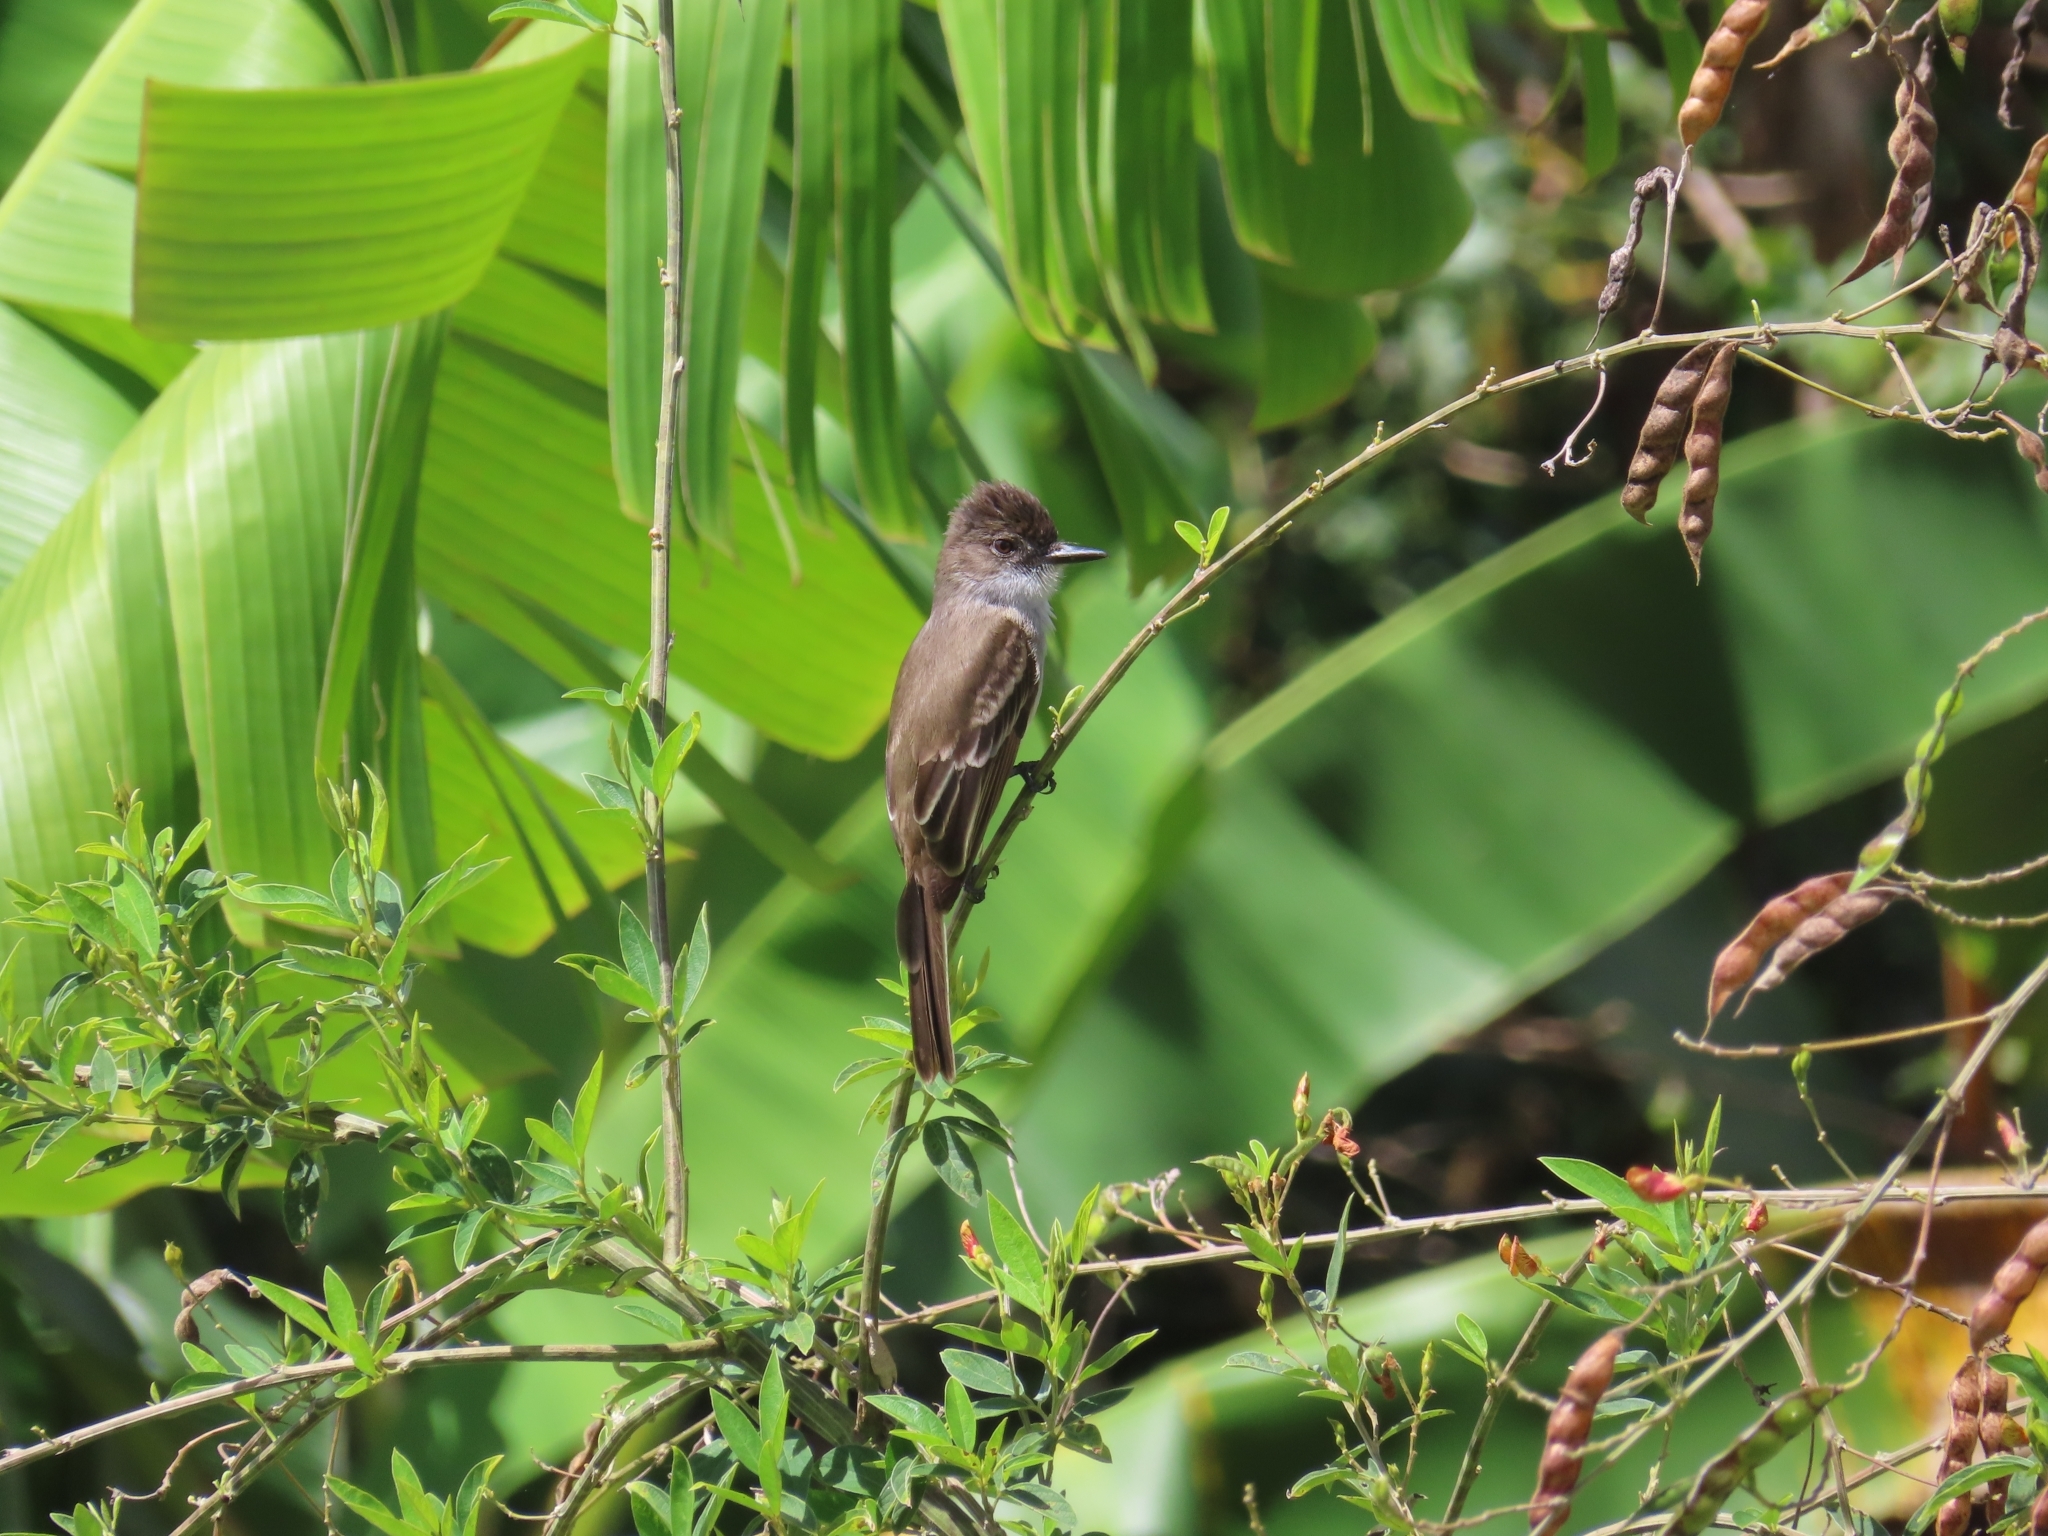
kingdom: Animalia
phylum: Chordata
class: Aves
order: Passeriformes
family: Tyrannidae
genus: Myiarchus
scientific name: Myiarchus antillarum
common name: Puerto rican flycatcher
